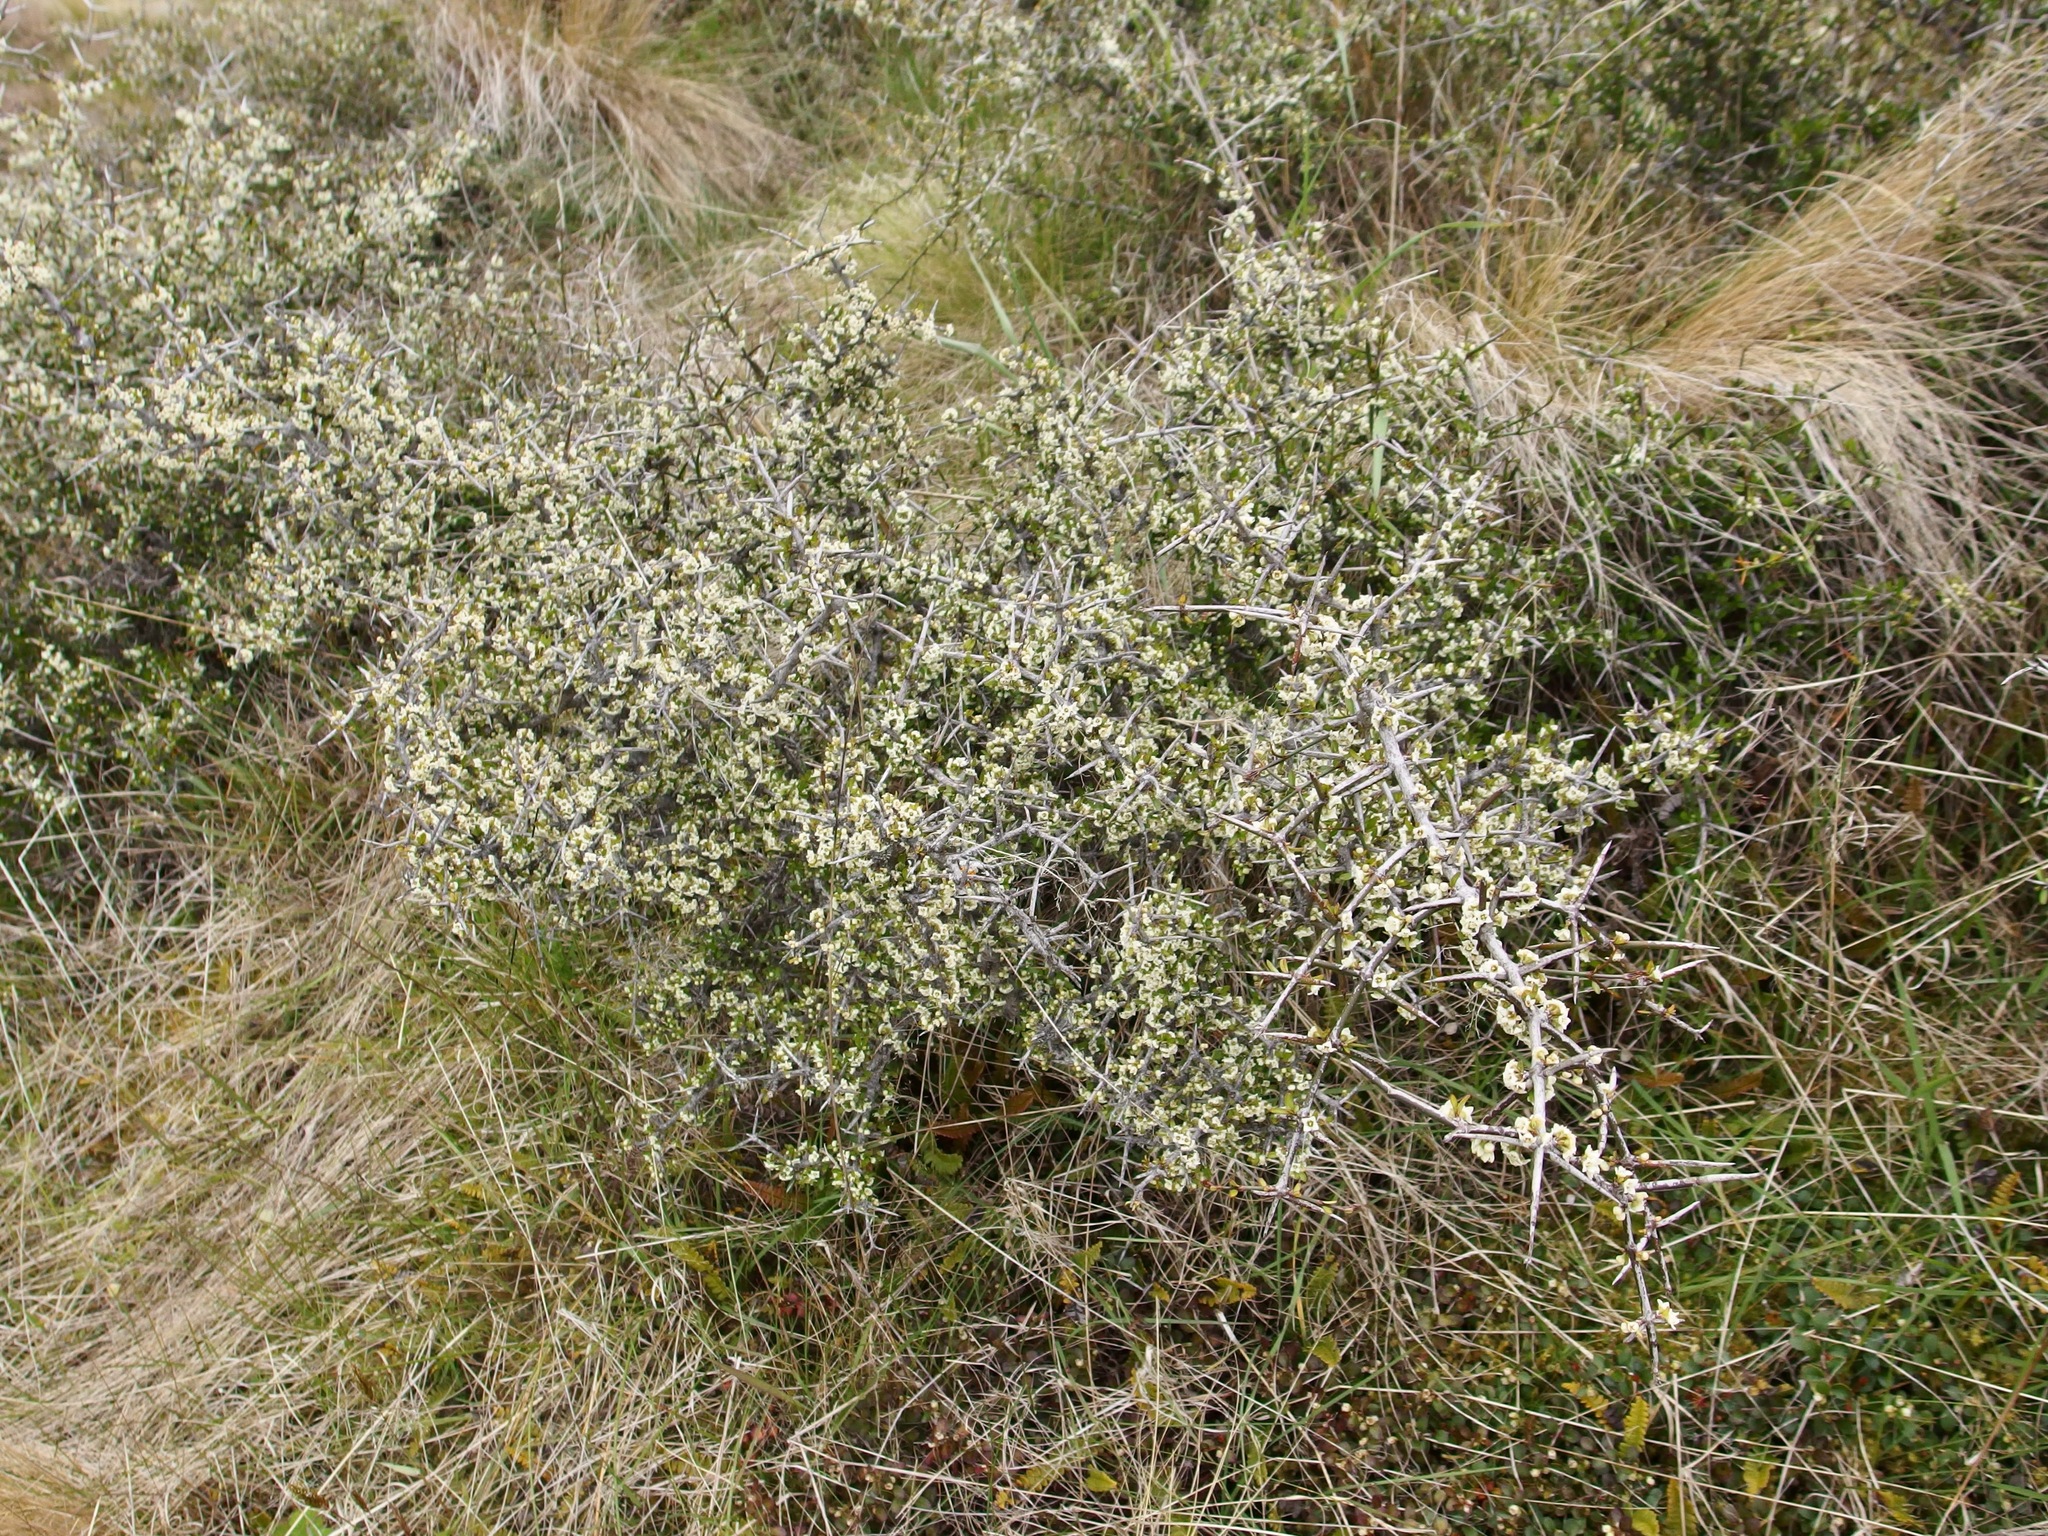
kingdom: Plantae
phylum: Tracheophyta
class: Magnoliopsida
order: Rosales
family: Rhamnaceae
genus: Discaria
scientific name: Discaria toumatou
